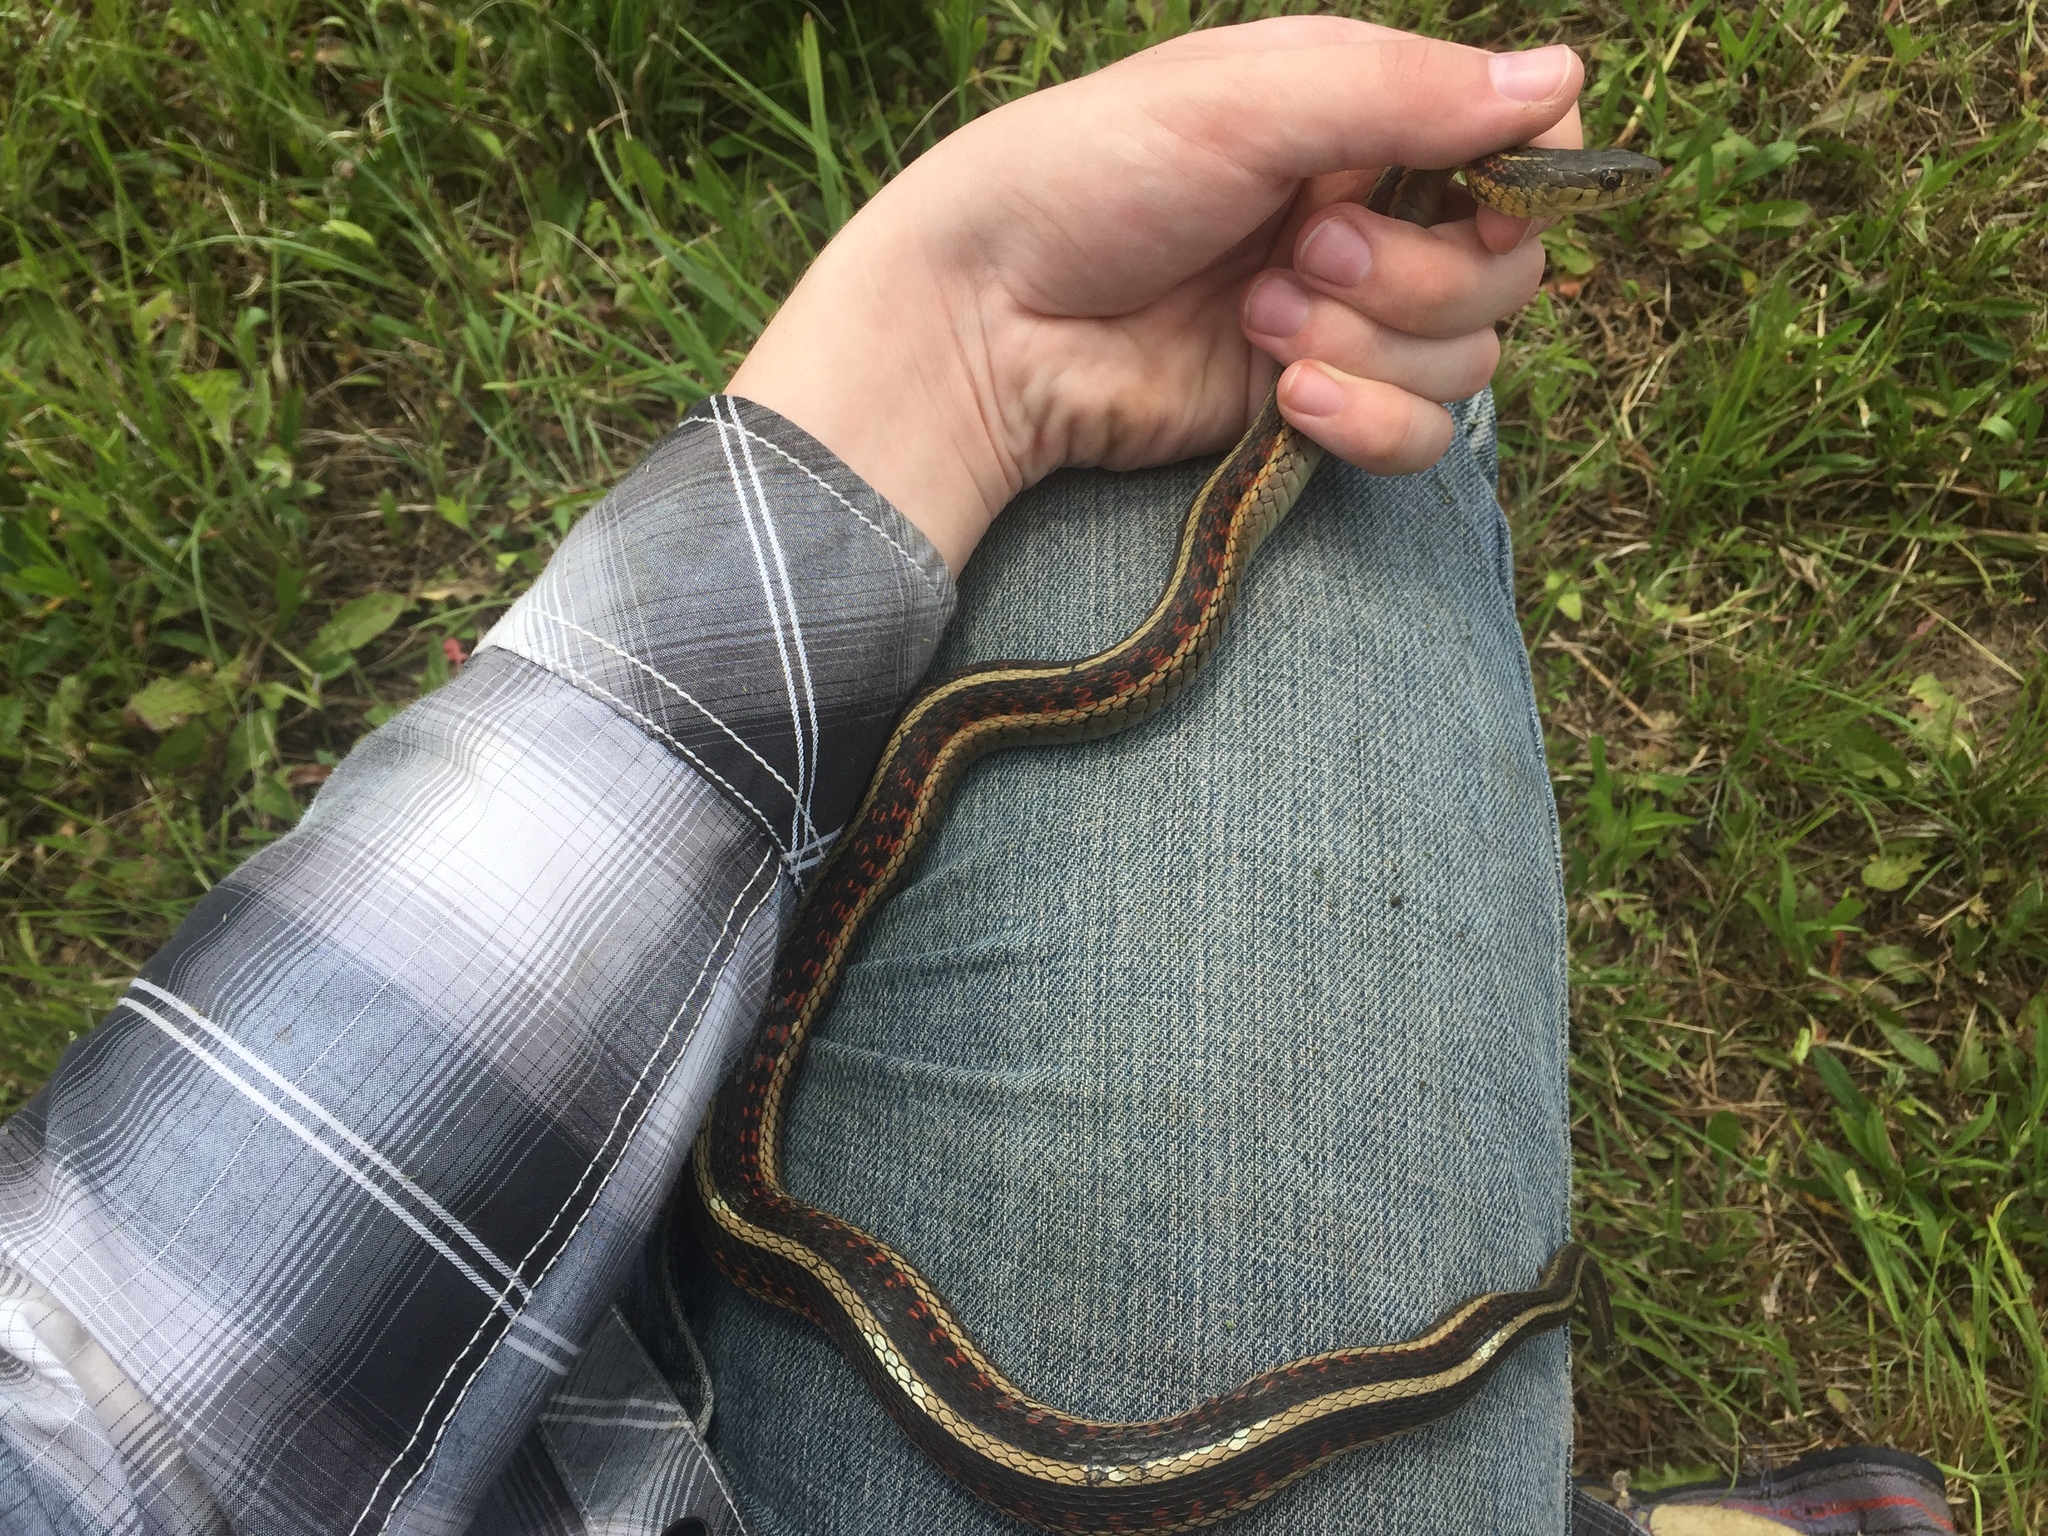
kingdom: Animalia
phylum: Chordata
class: Squamata
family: Colubridae
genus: Thamnophis
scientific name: Thamnophis sirtalis
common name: Common garter snake
